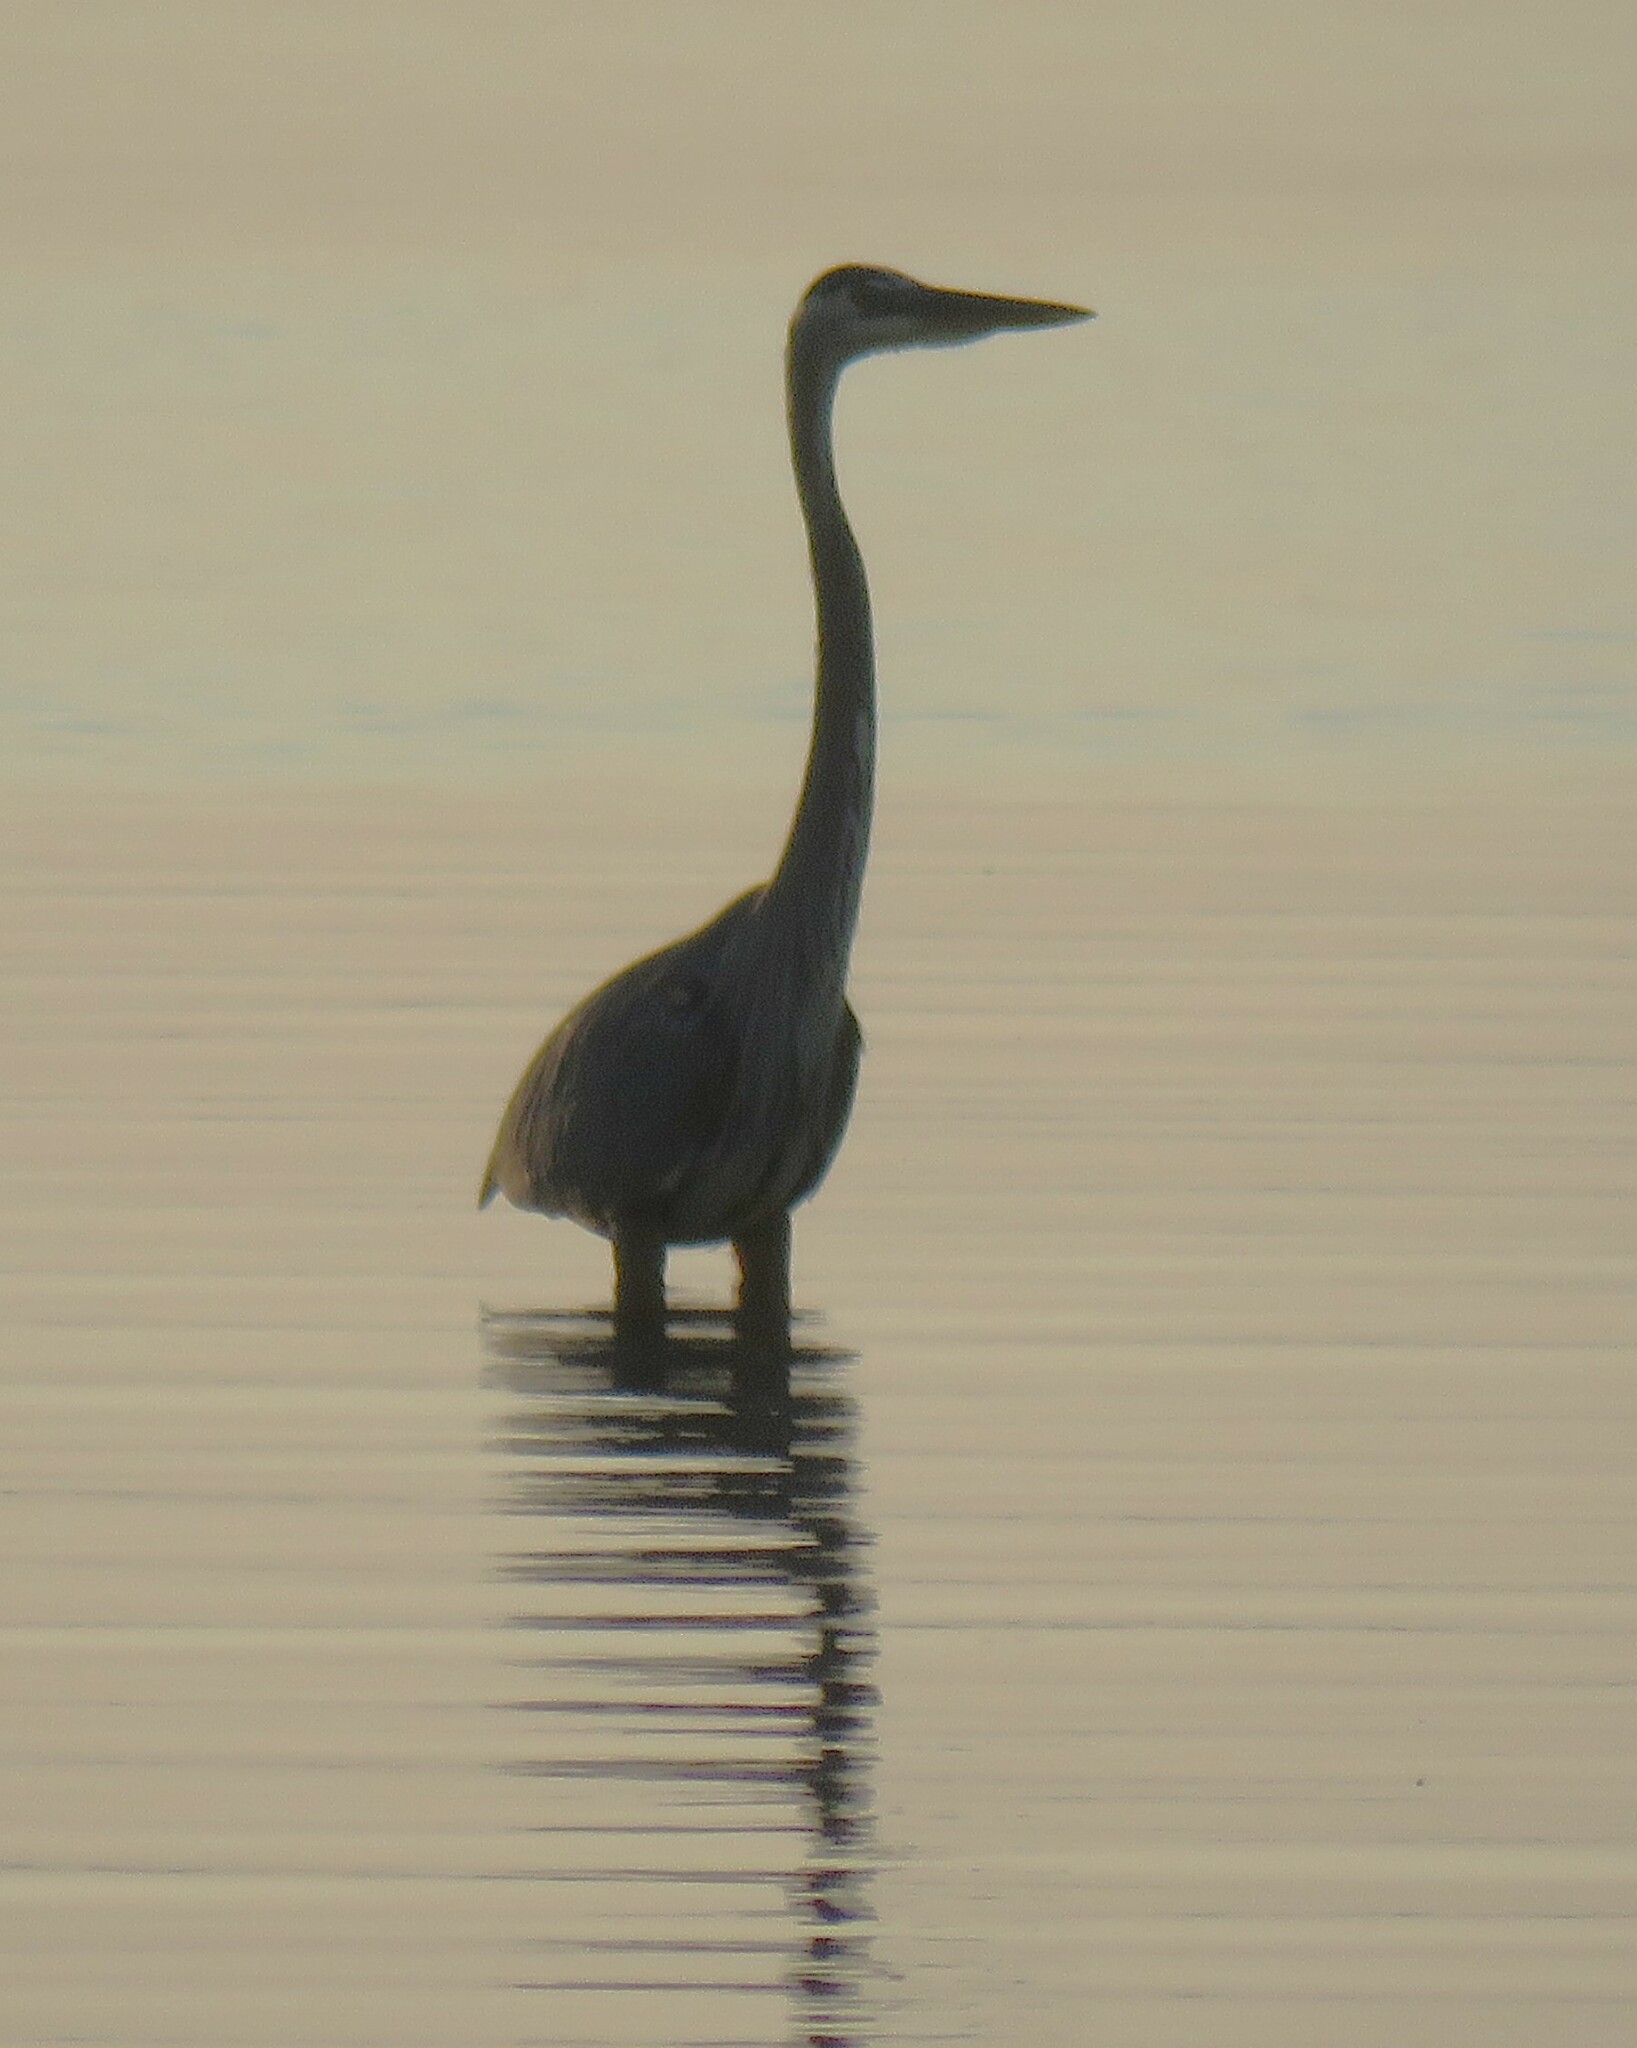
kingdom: Animalia
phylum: Chordata
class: Aves
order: Pelecaniformes
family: Ardeidae
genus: Ardea
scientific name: Ardea herodias
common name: Great blue heron
